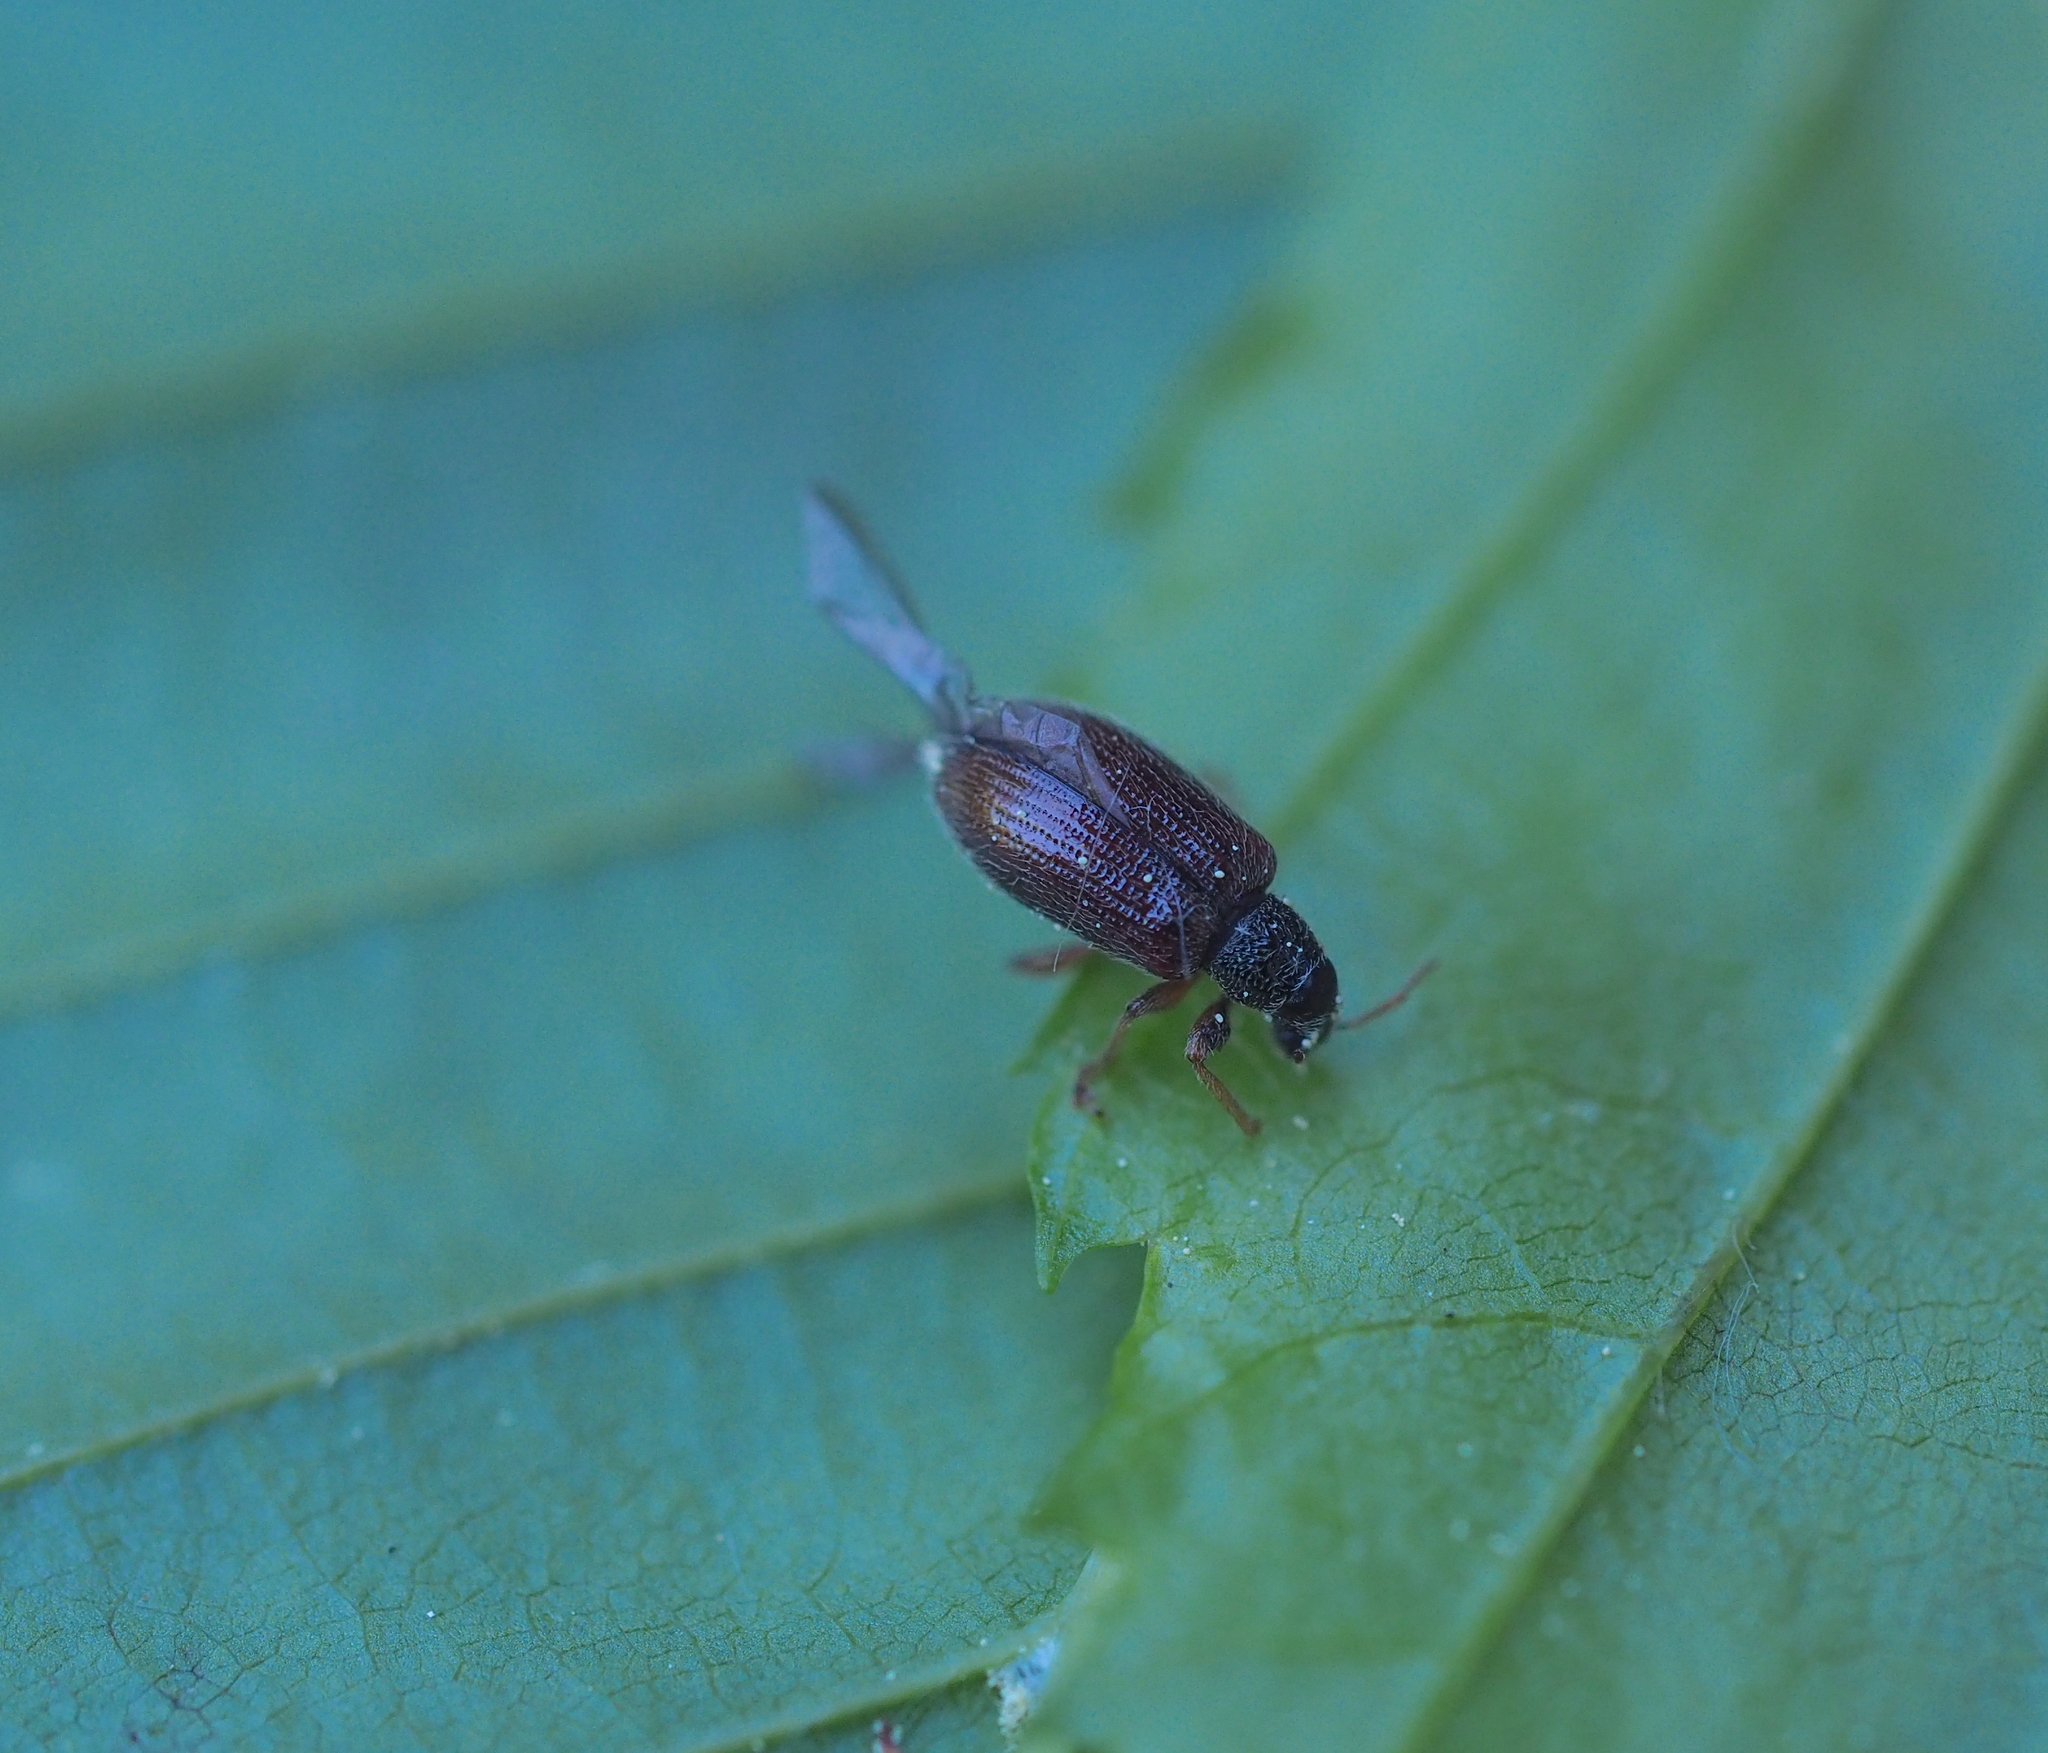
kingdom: Animalia
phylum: Arthropoda
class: Insecta
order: Coleoptera
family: Curculionidae
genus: Phyllobius
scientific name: Phyllobius oblongus
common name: Brown leaf weevil
